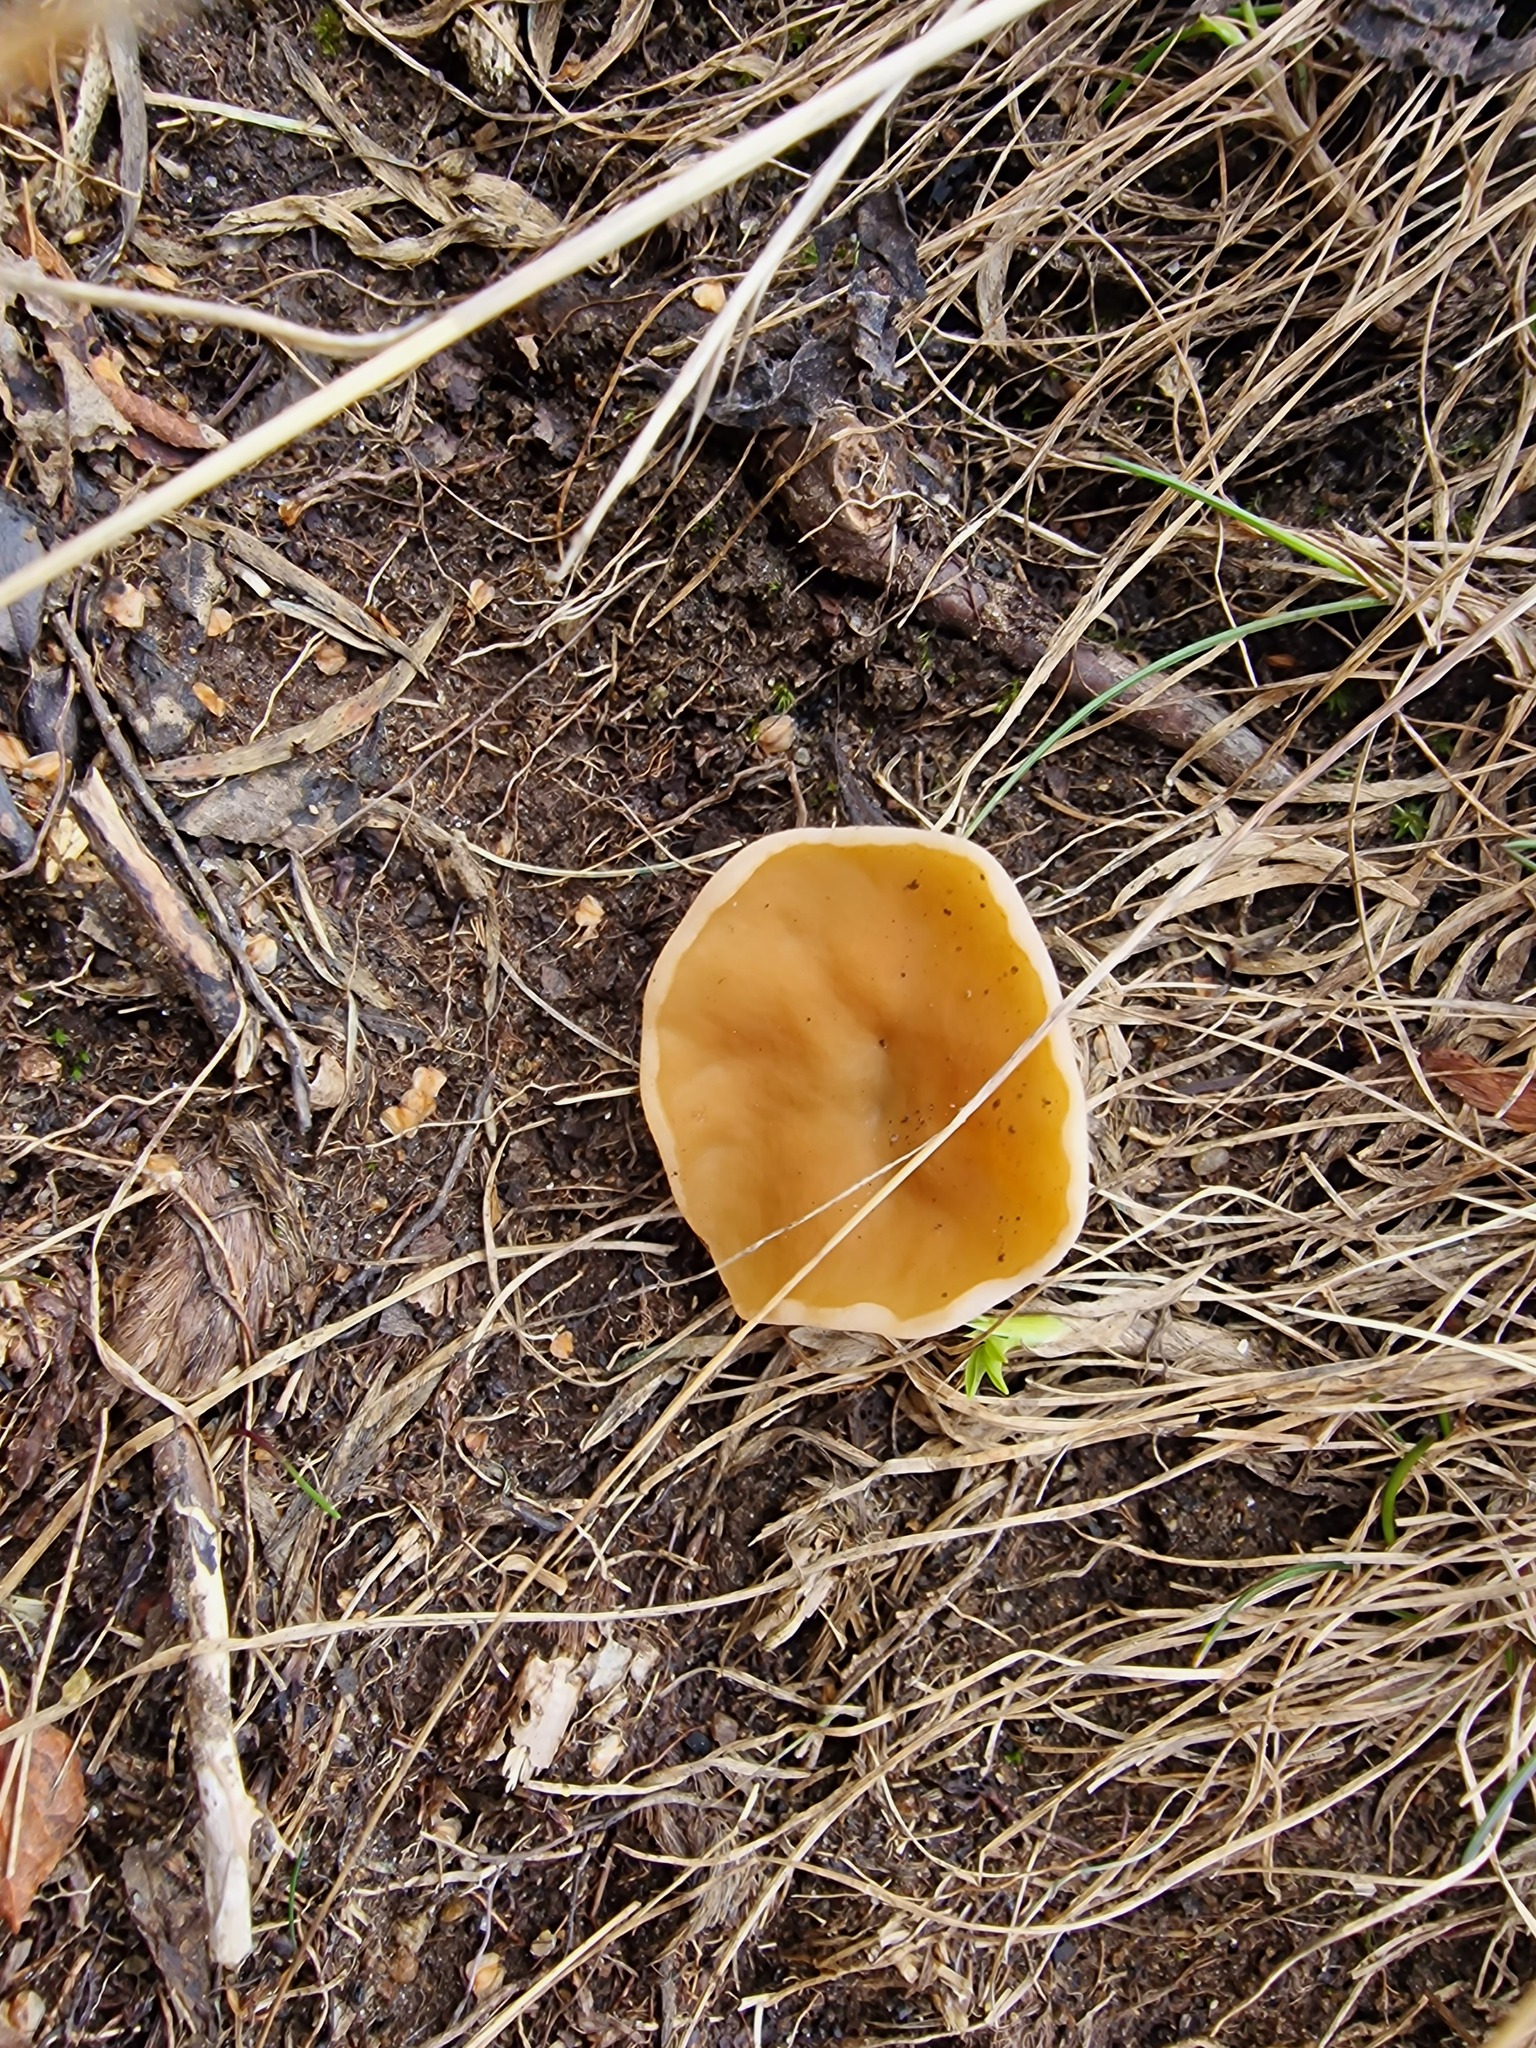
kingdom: Fungi
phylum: Ascomycota
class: Pezizomycetes
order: Pezizales
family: Discinaceae
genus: Discina
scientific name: Discina
